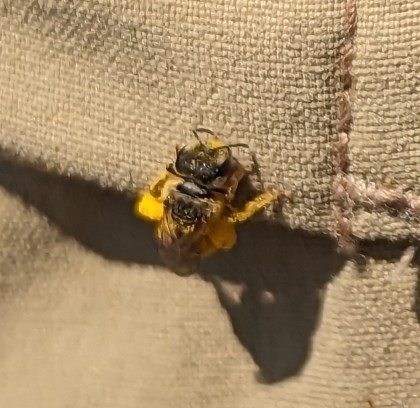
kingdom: Animalia
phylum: Arthropoda
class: Insecta
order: Hymenoptera
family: Halictidae
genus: Halictus
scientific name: Halictus ligatus
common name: Ligated furrow bee
